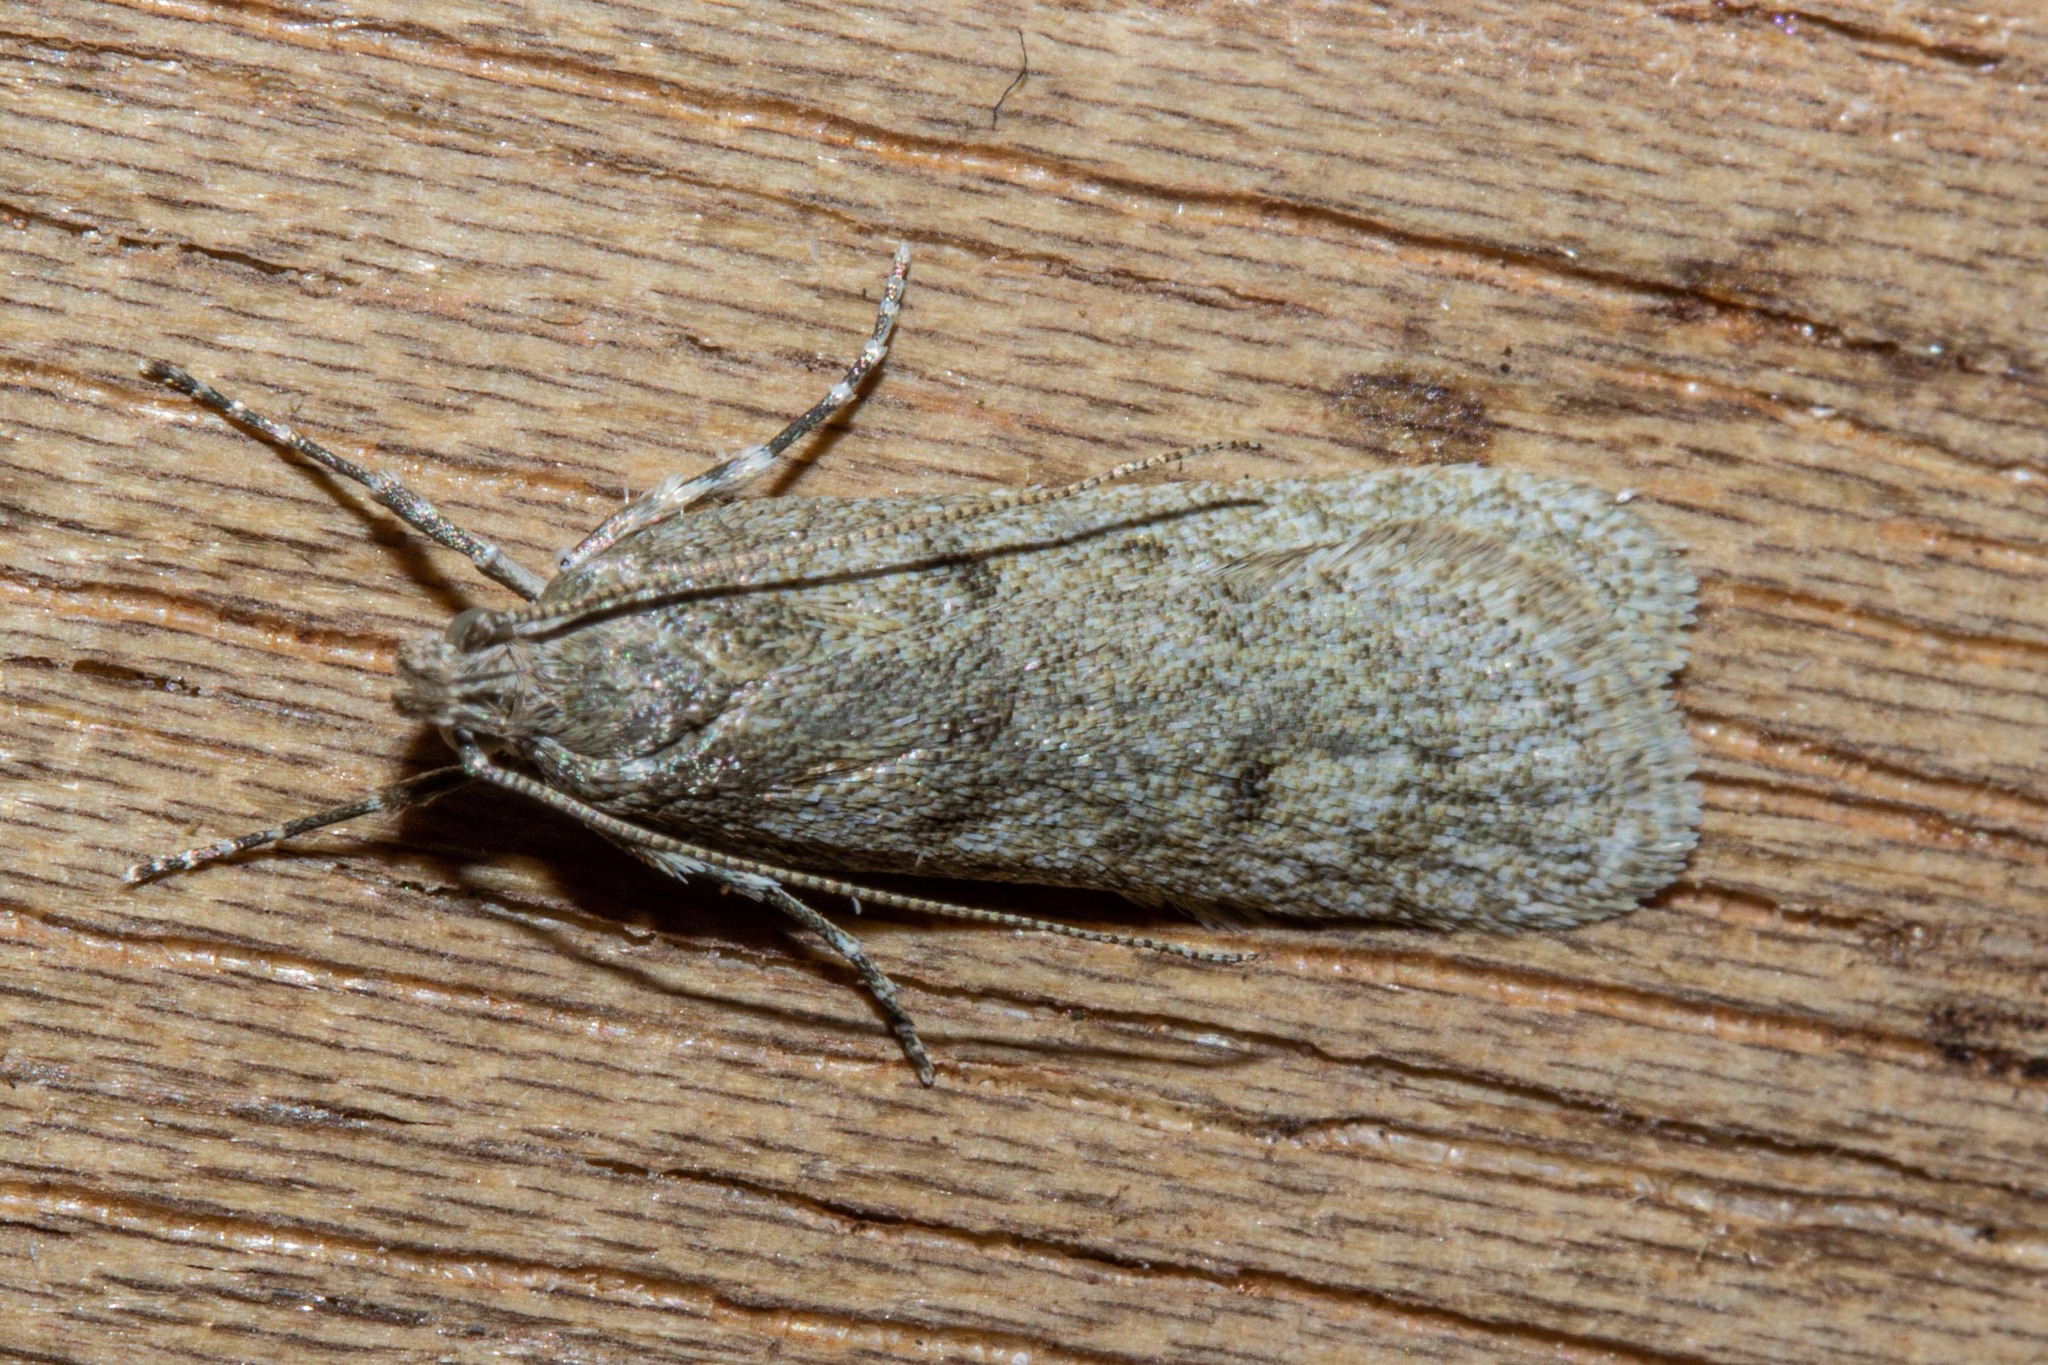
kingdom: Animalia
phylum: Arthropoda
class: Insecta
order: Lepidoptera
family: Depressariidae
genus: Phaeosaces
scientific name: Phaeosaces apocrypta
